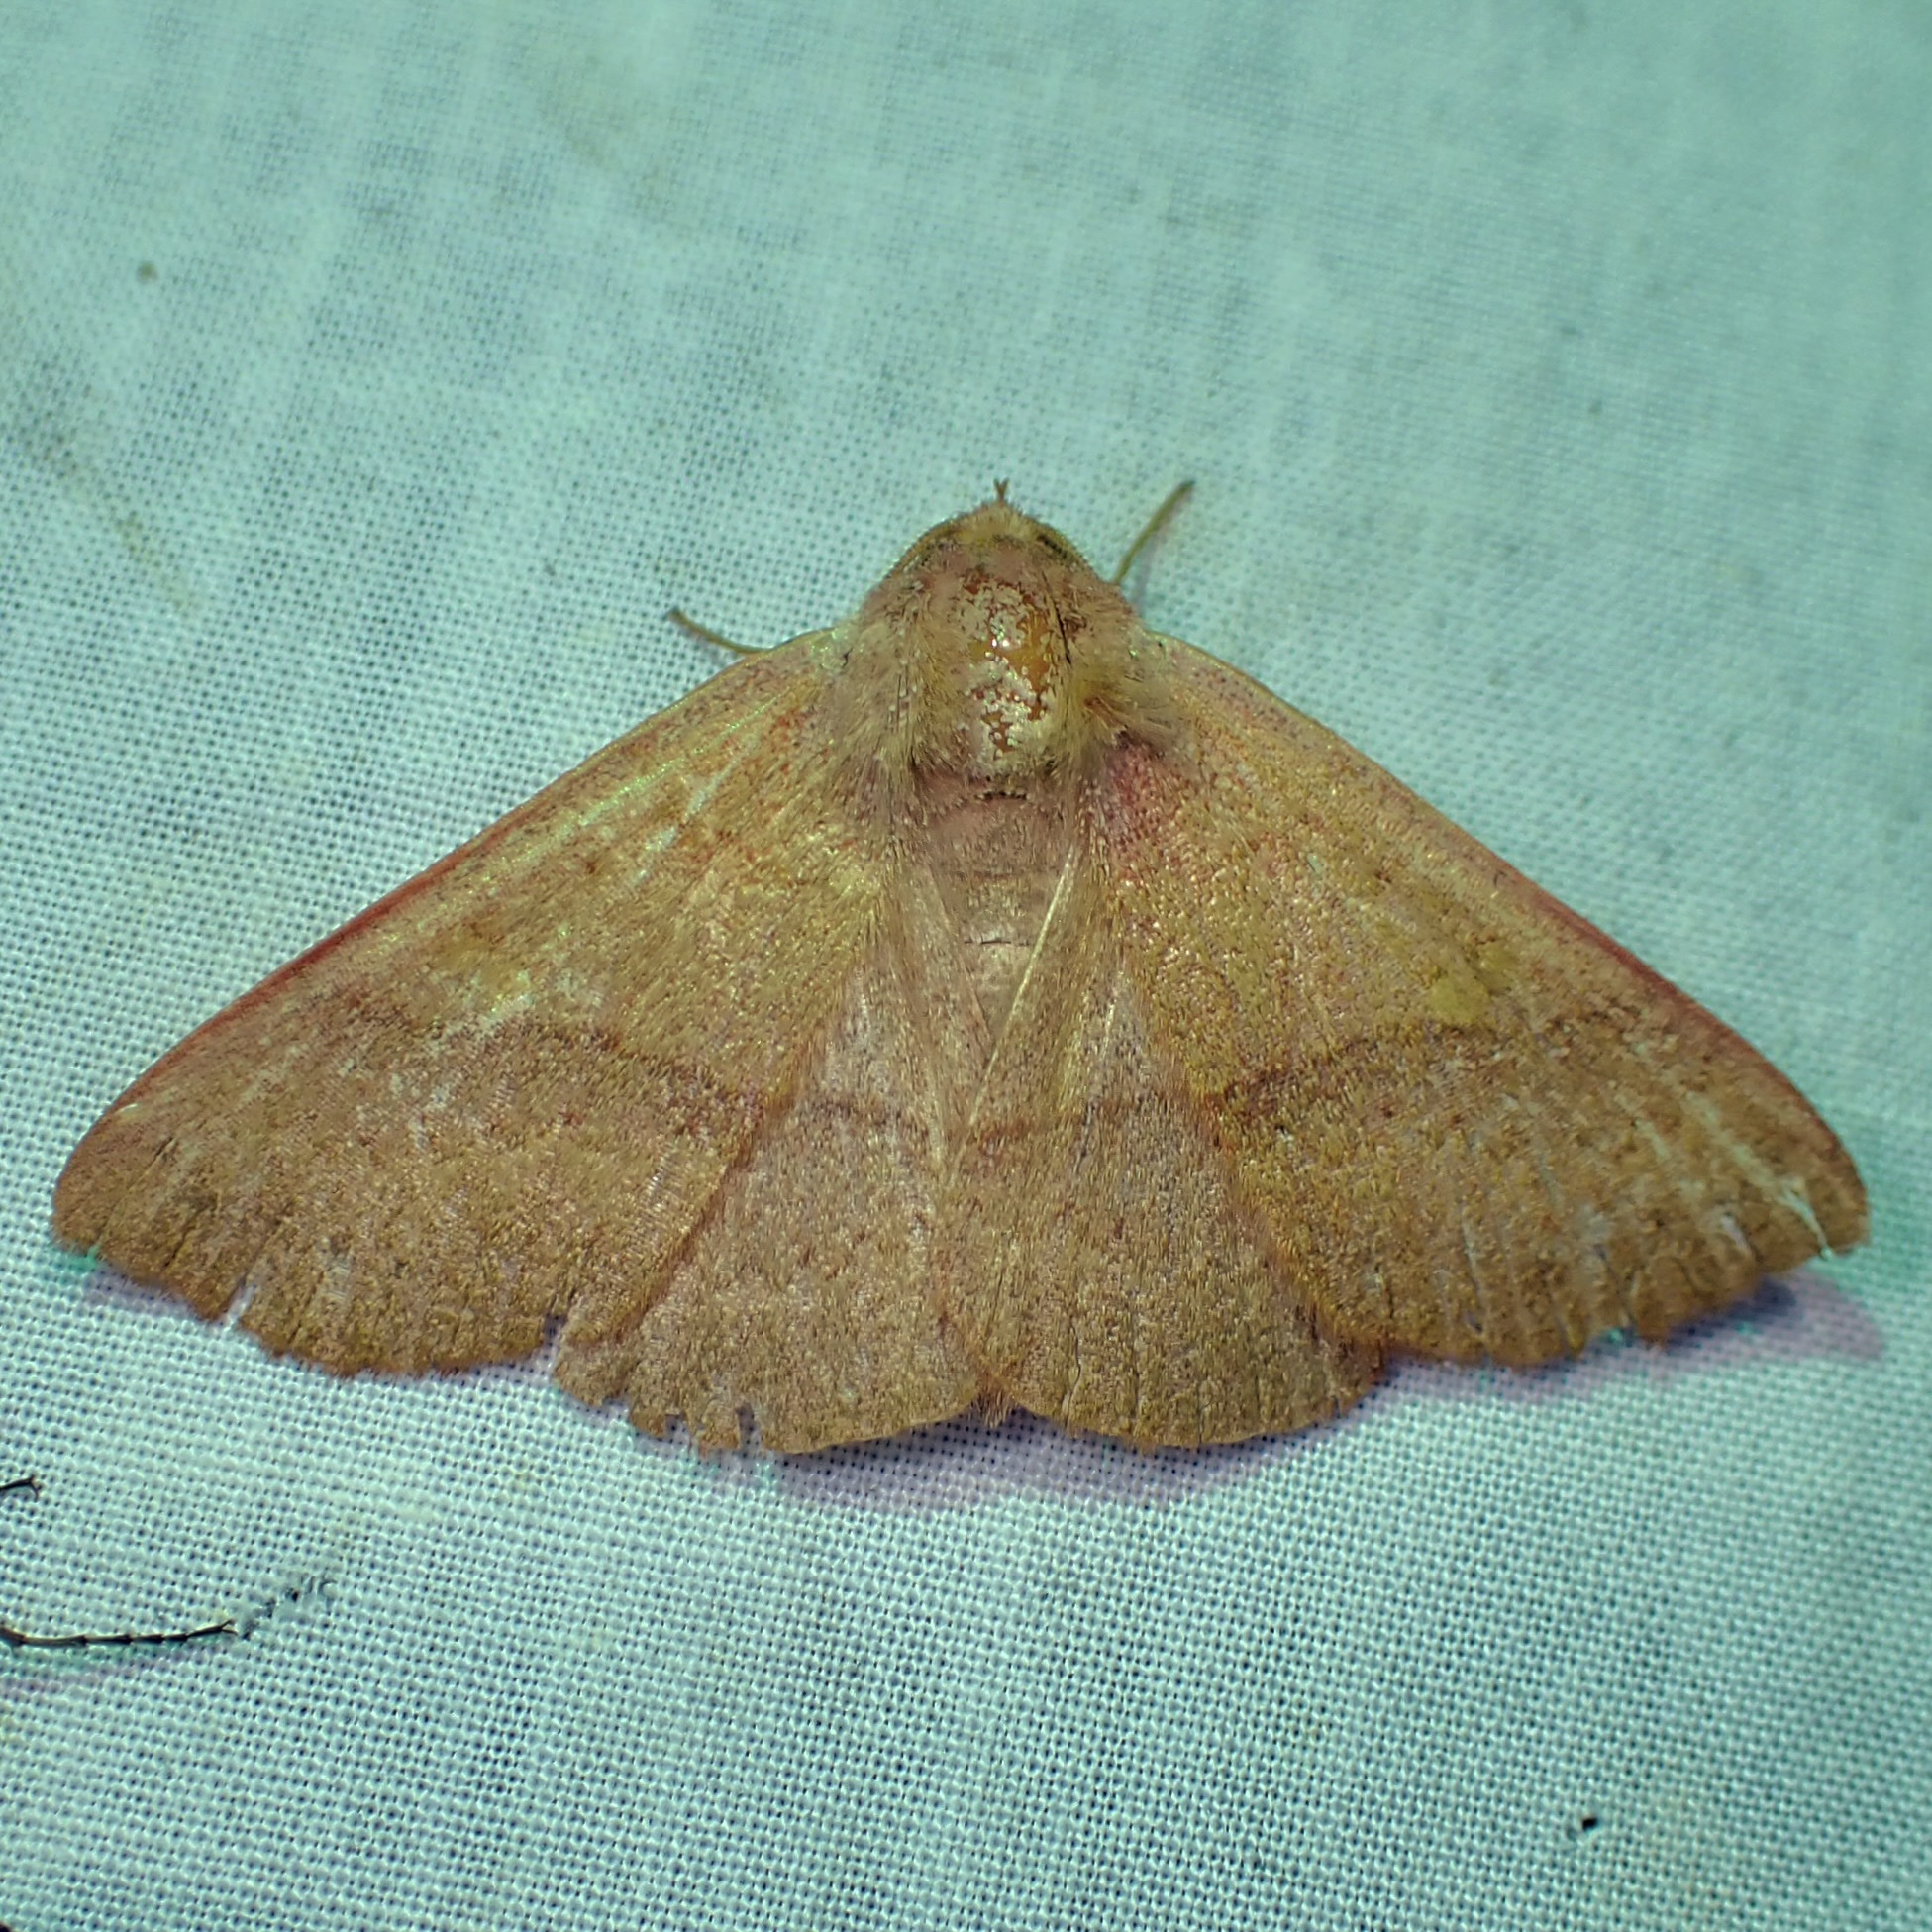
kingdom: Animalia
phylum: Arthropoda
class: Insecta
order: Lepidoptera
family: Erebidae
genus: Panopoda
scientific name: Panopoda rigida
